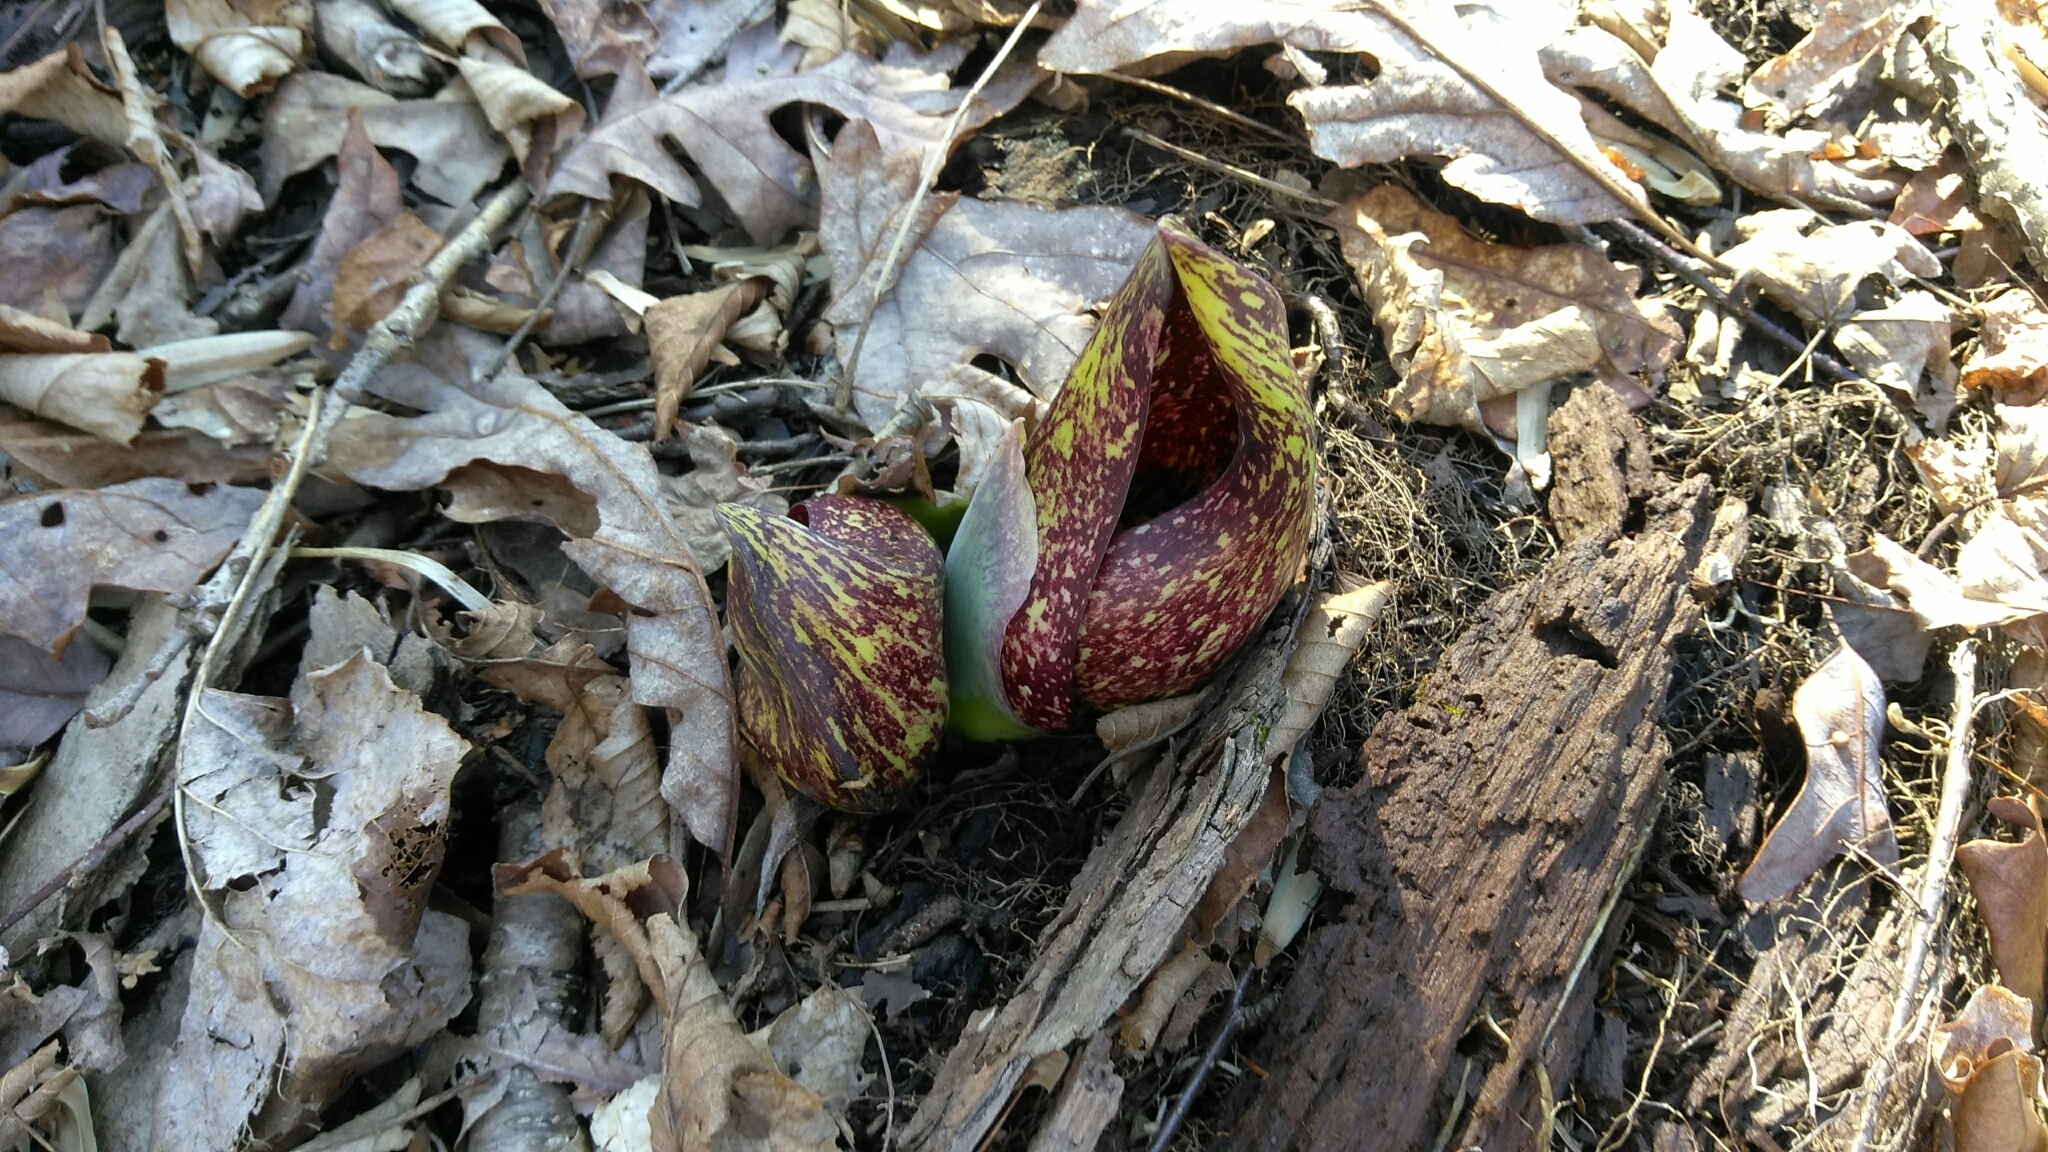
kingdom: Plantae
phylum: Tracheophyta
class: Liliopsida
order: Alismatales
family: Araceae
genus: Symplocarpus
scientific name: Symplocarpus foetidus
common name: Eastern skunk cabbage
